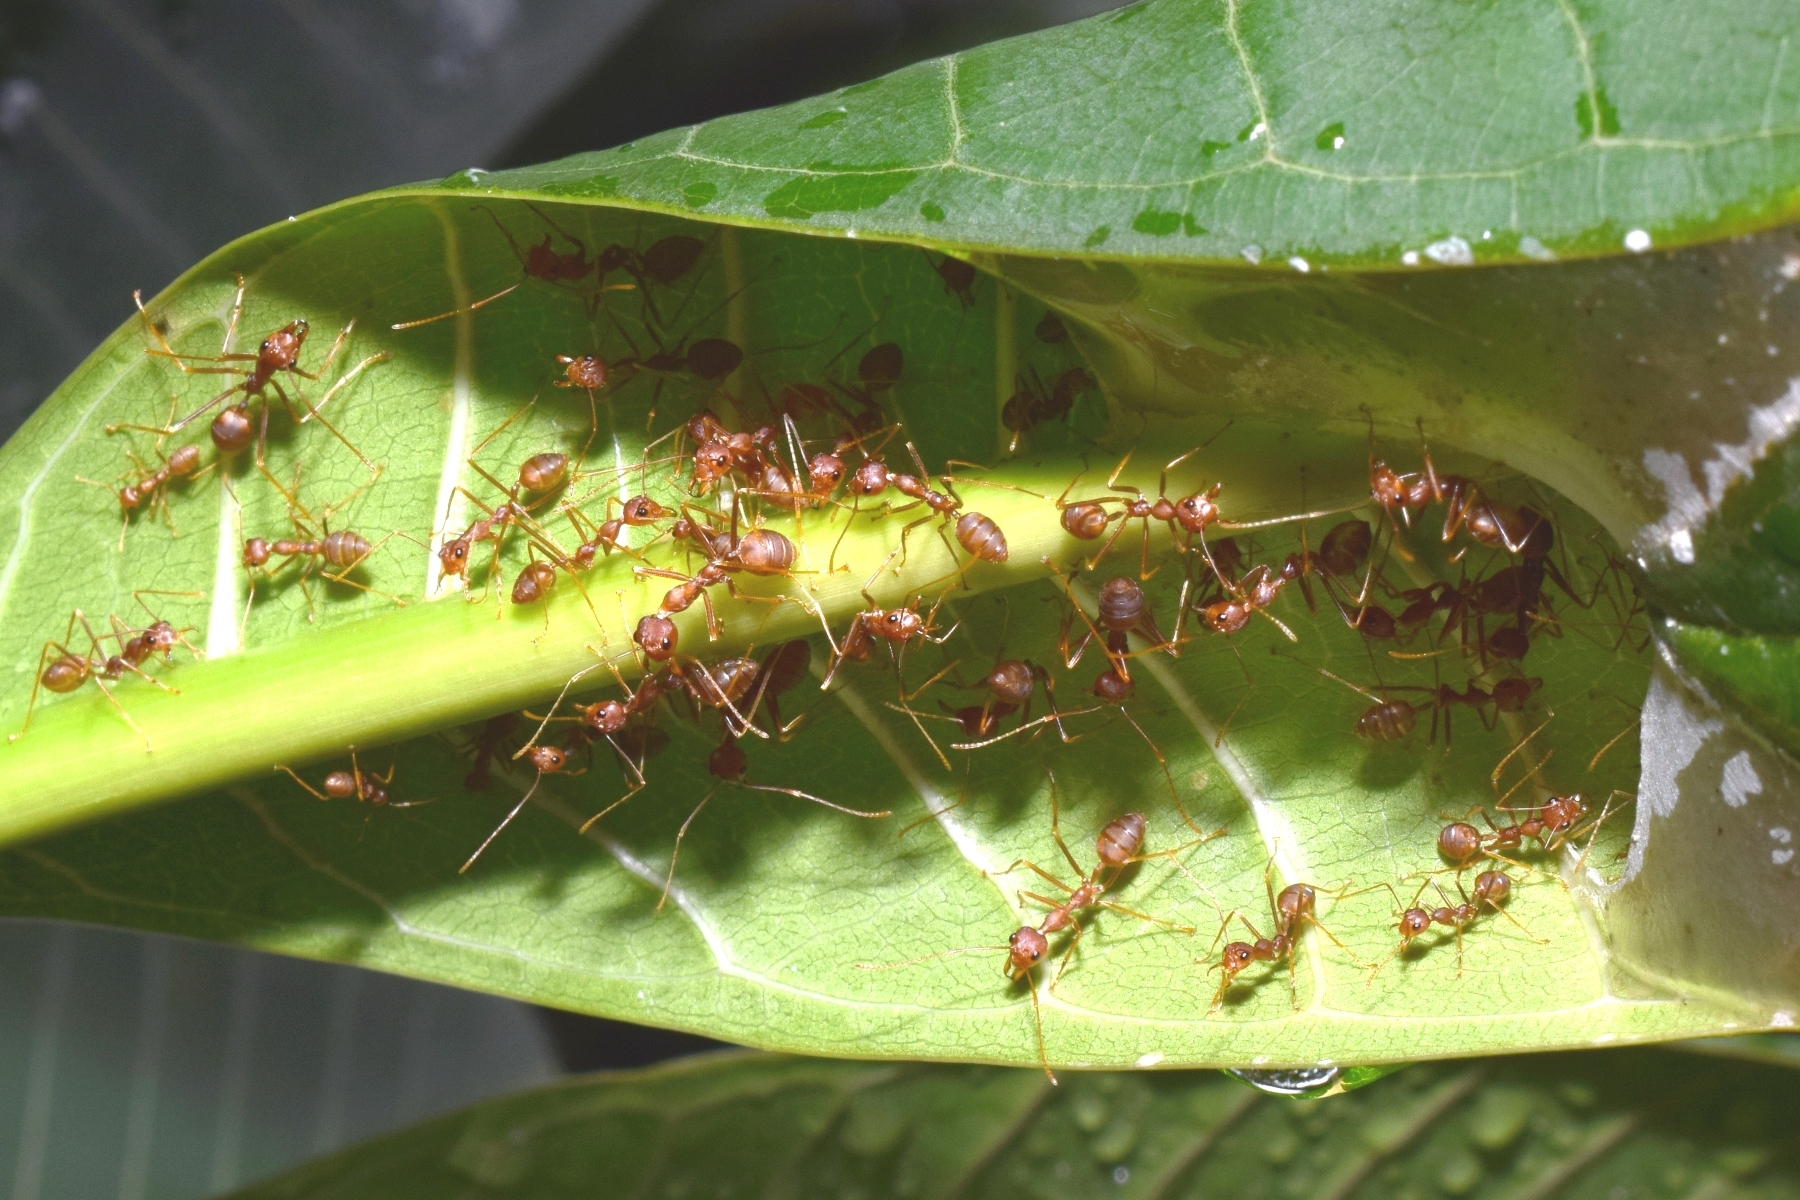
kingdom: Animalia
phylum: Arthropoda
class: Insecta
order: Hymenoptera
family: Formicidae
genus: Oecophylla
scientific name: Oecophylla smaragdina
